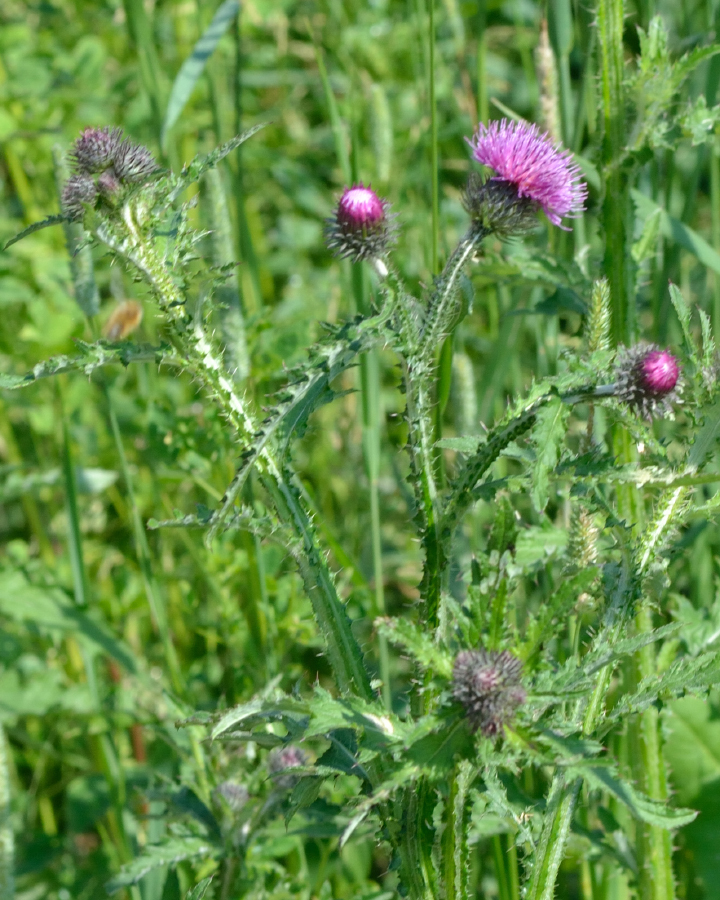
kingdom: Plantae
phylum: Tracheophyta
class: Magnoliopsida
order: Asterales
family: Asteraceae
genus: Carduus
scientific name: Carduus crispus
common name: Welted thistle
